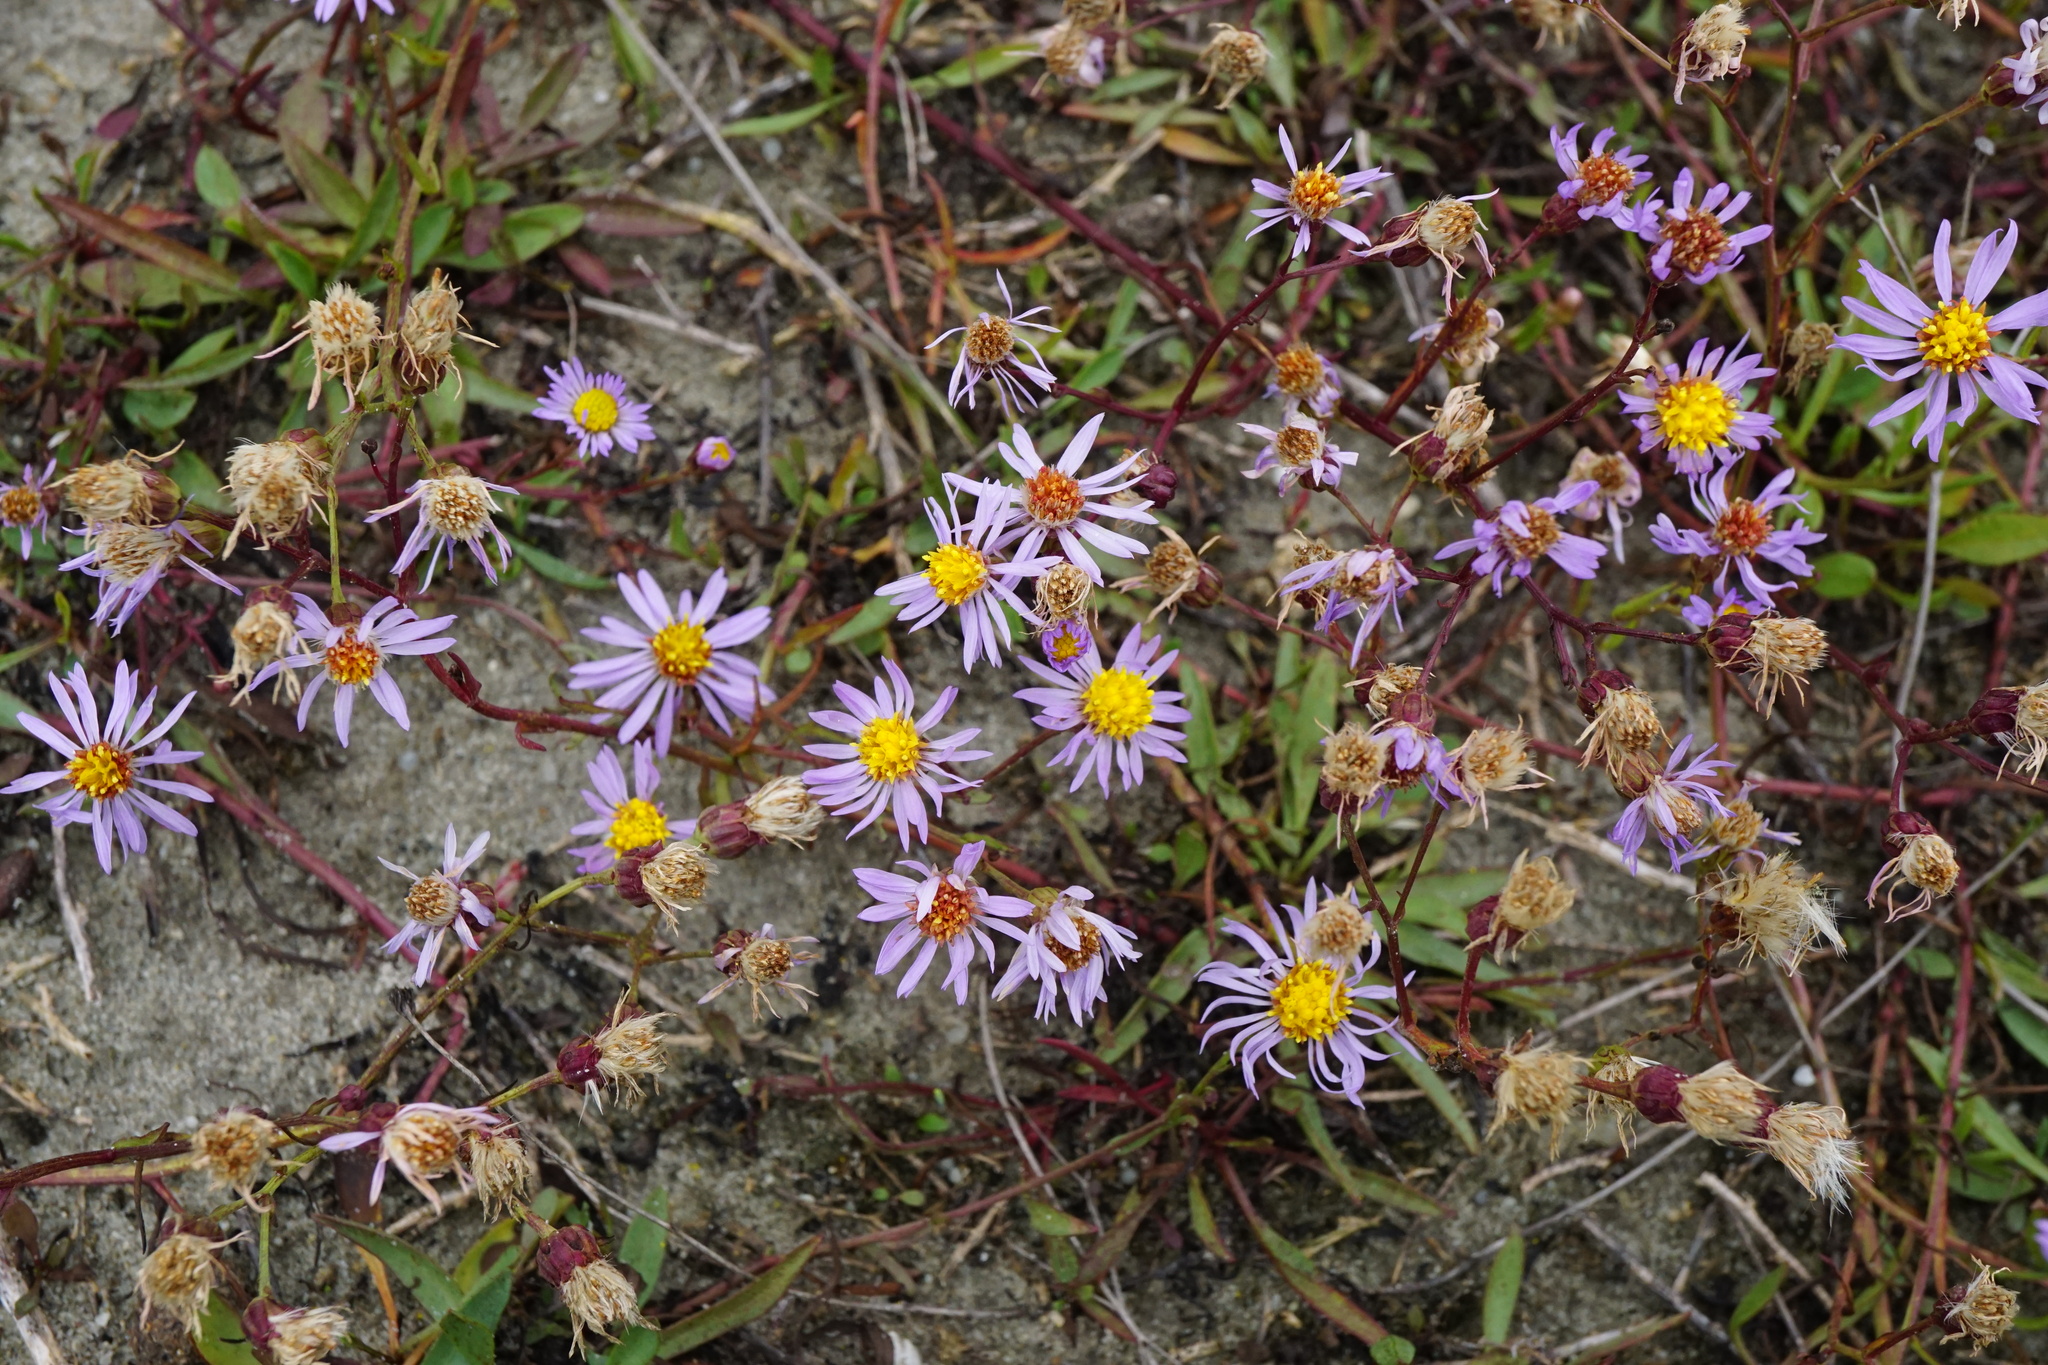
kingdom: Plantae
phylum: Tracheophyta
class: Magnoliopsida
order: Asterales
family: Asteraceae
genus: Tripolium
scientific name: Tripolium pannonicum
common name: Sea aster
